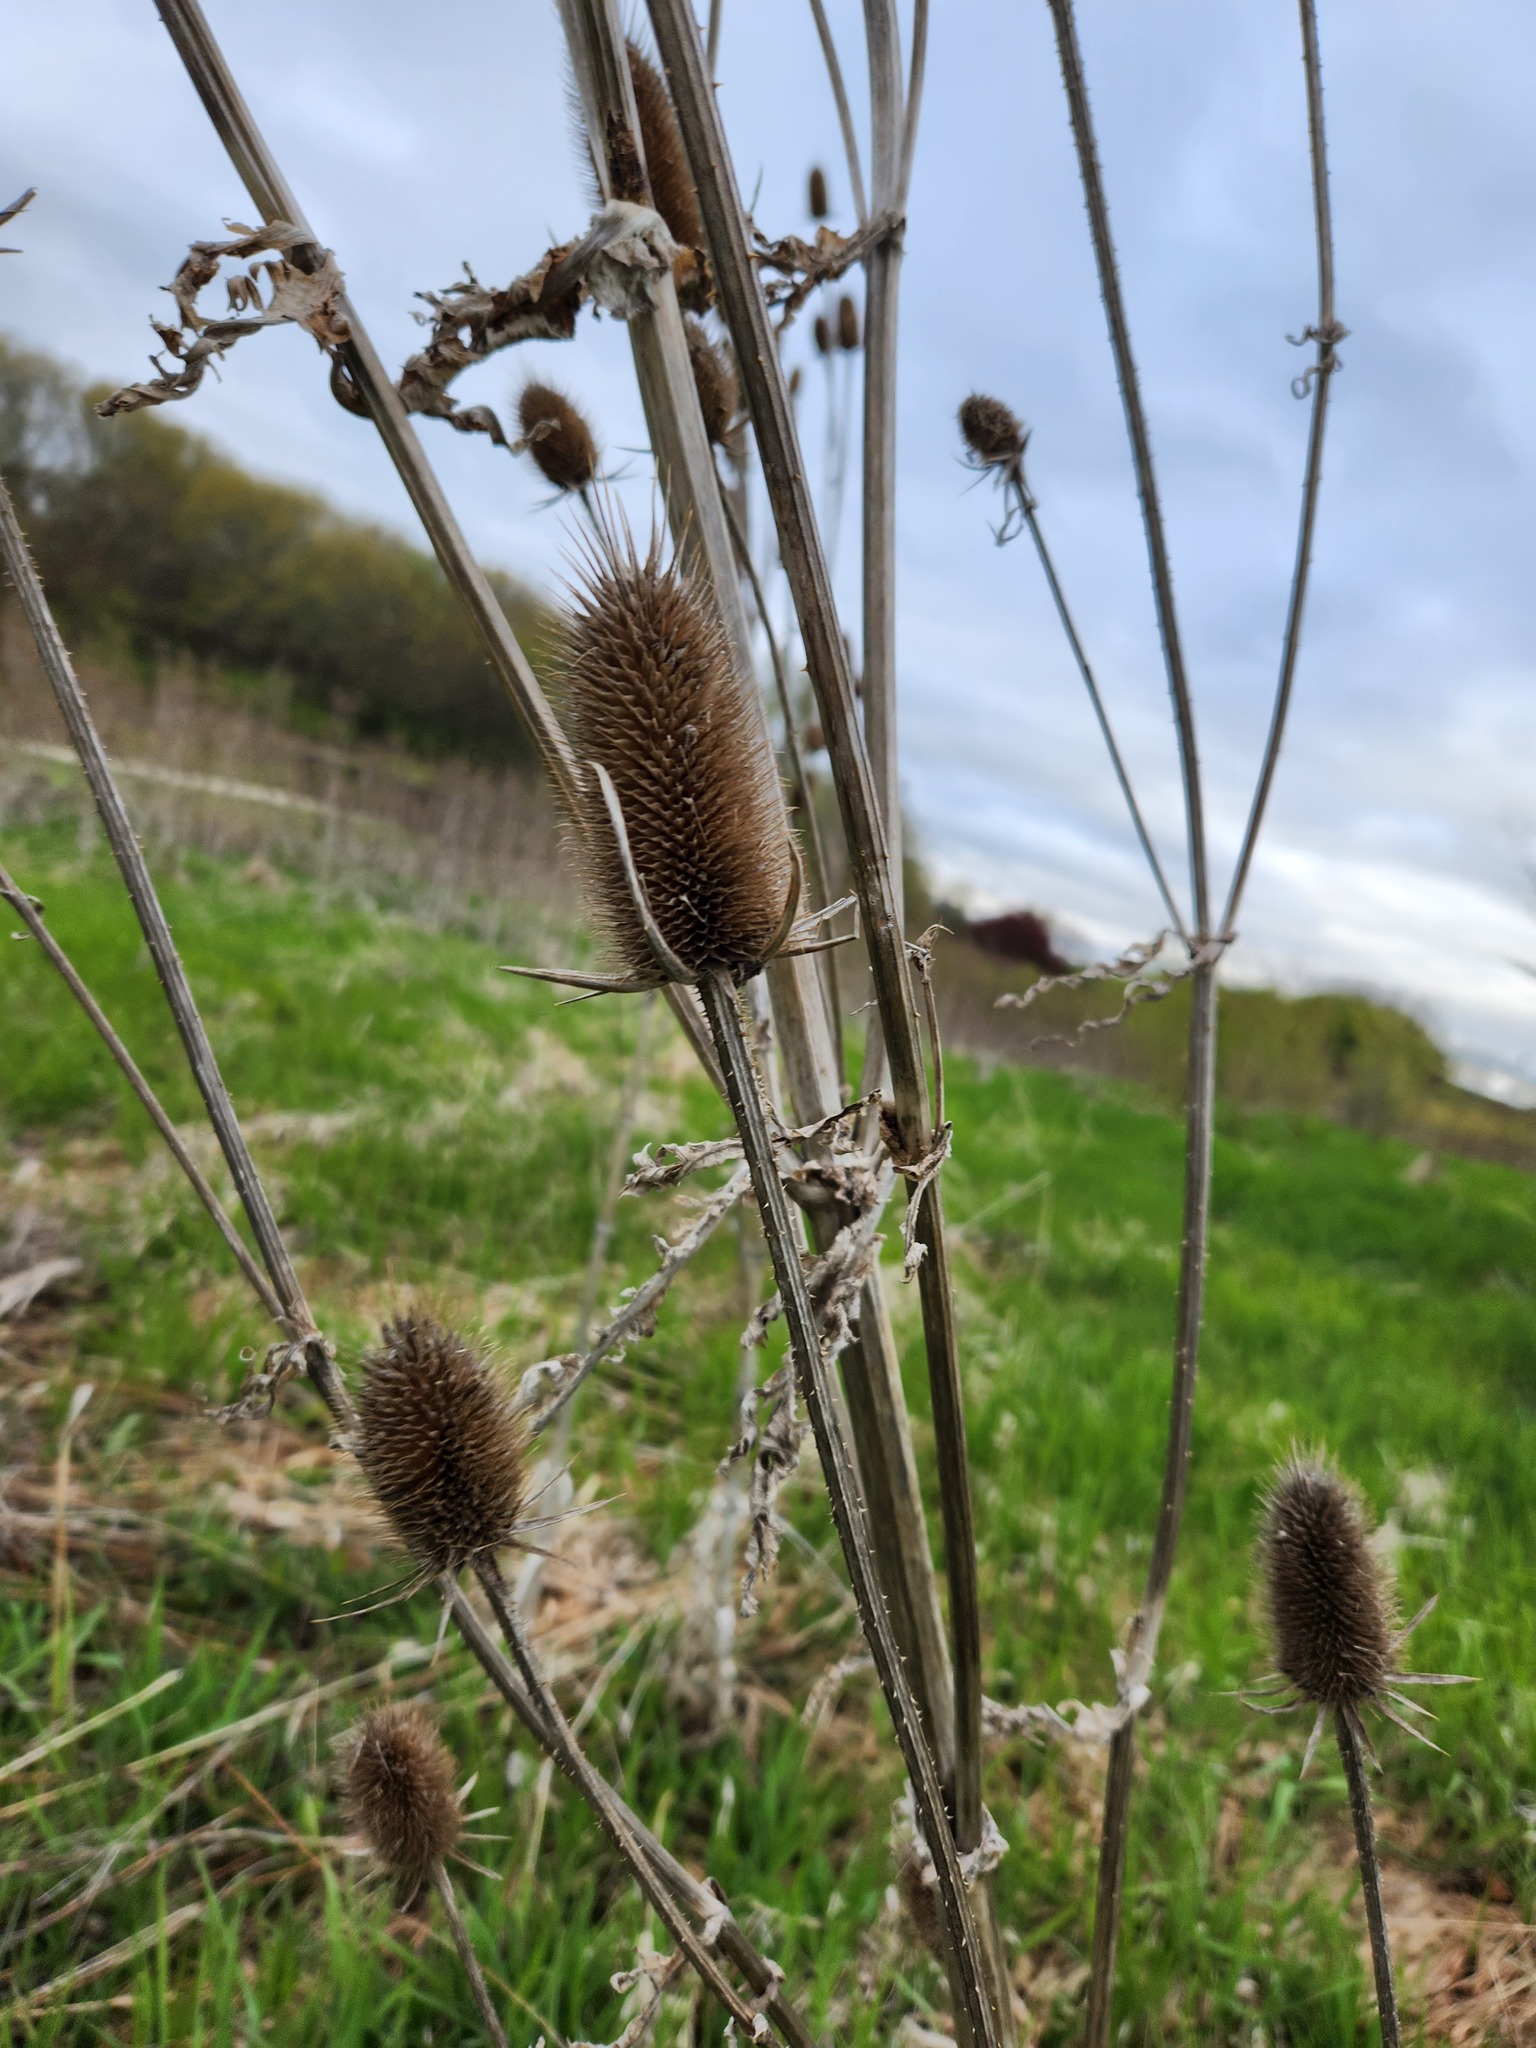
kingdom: Plantae
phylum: Tracheophyta
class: Magnoliopsida
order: Dipsacales
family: Caprifoliaceae
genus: Dipsacus
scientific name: Dipsacus laciniatus
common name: Cut-leaved teasel
